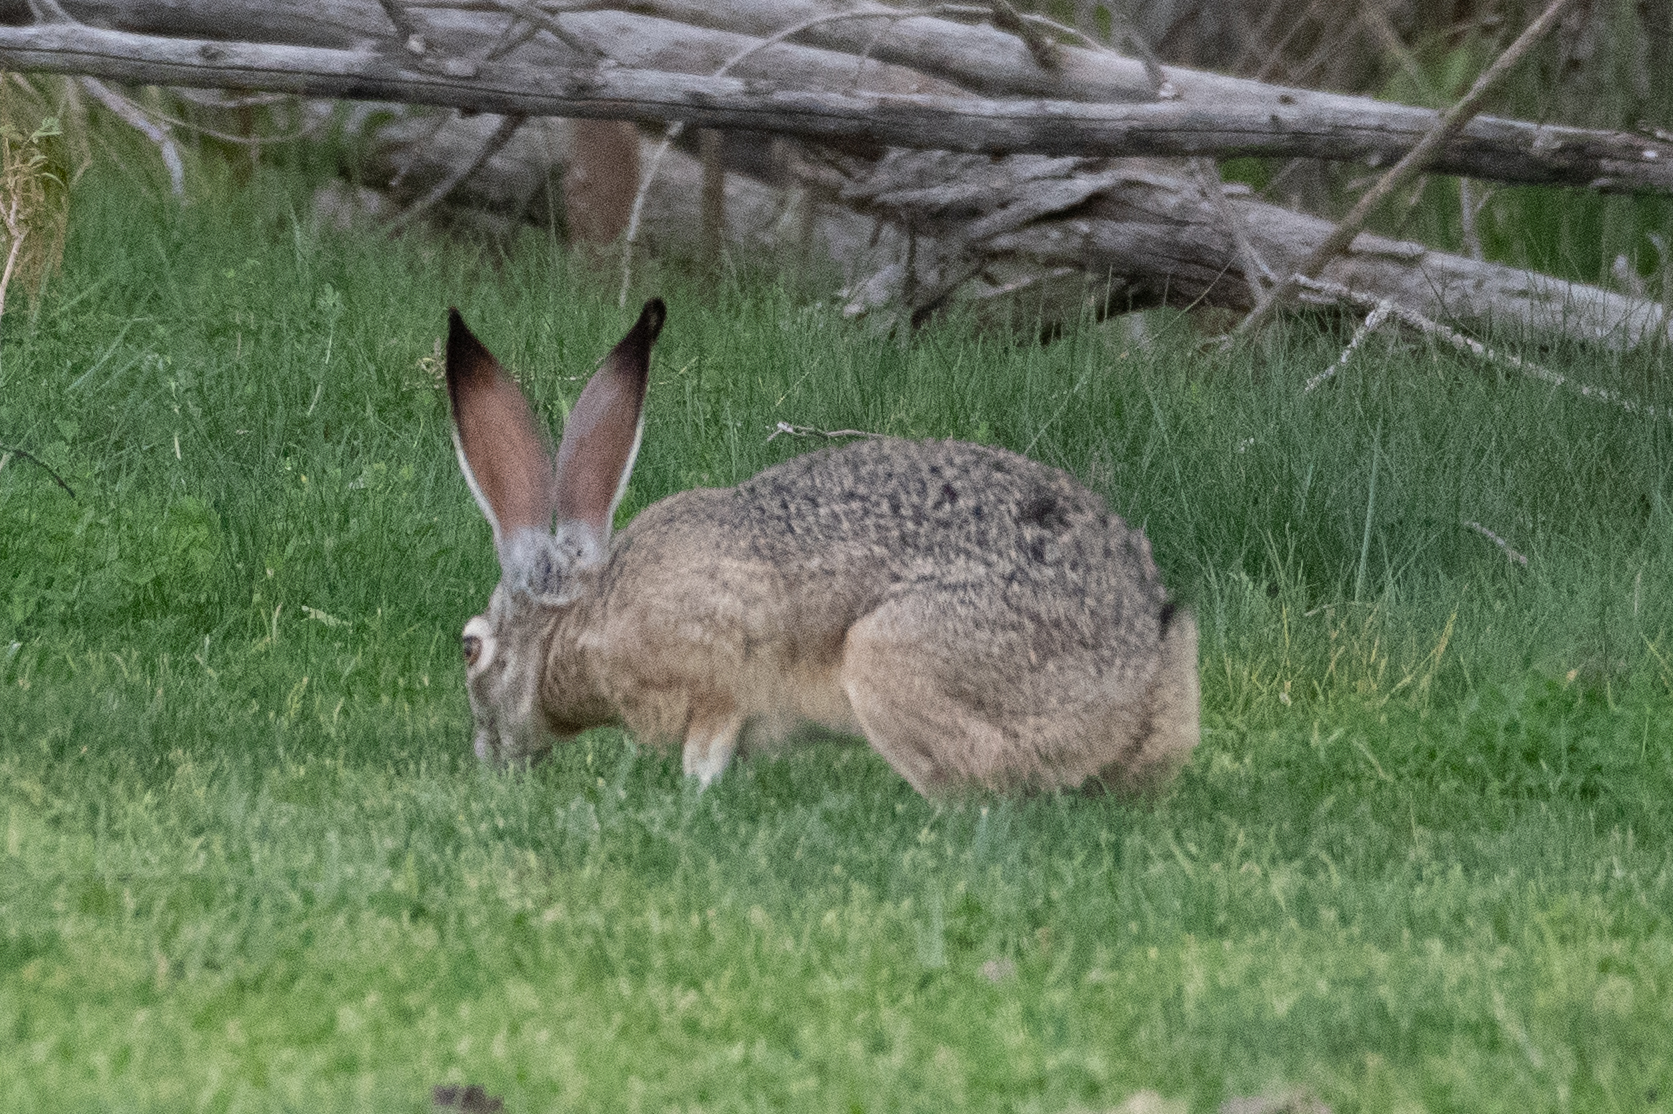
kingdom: Animalia
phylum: Chordata
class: Mammalia
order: Lagomorpha
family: Leporidae
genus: Lepus
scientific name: Lepus californicus
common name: Black-tailed jackrabbit
